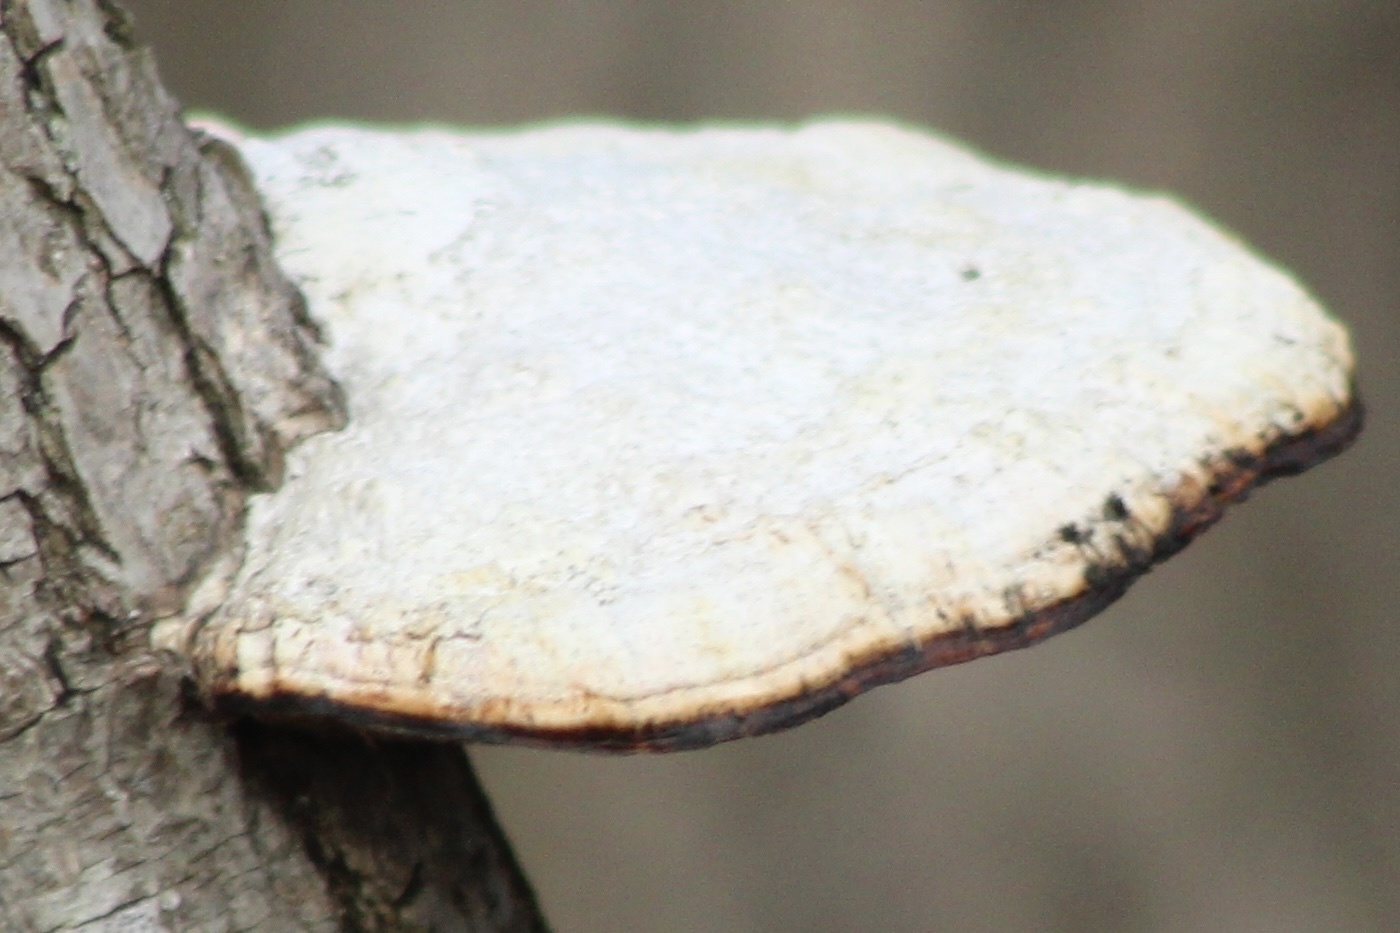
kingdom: Fungi
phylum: Basidiomycota
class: Agaricomycetes
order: Polyporales
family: Polyporaceae
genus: Daedaleopsis
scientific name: Daedaleopsis confragosa
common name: Blushing bracket
